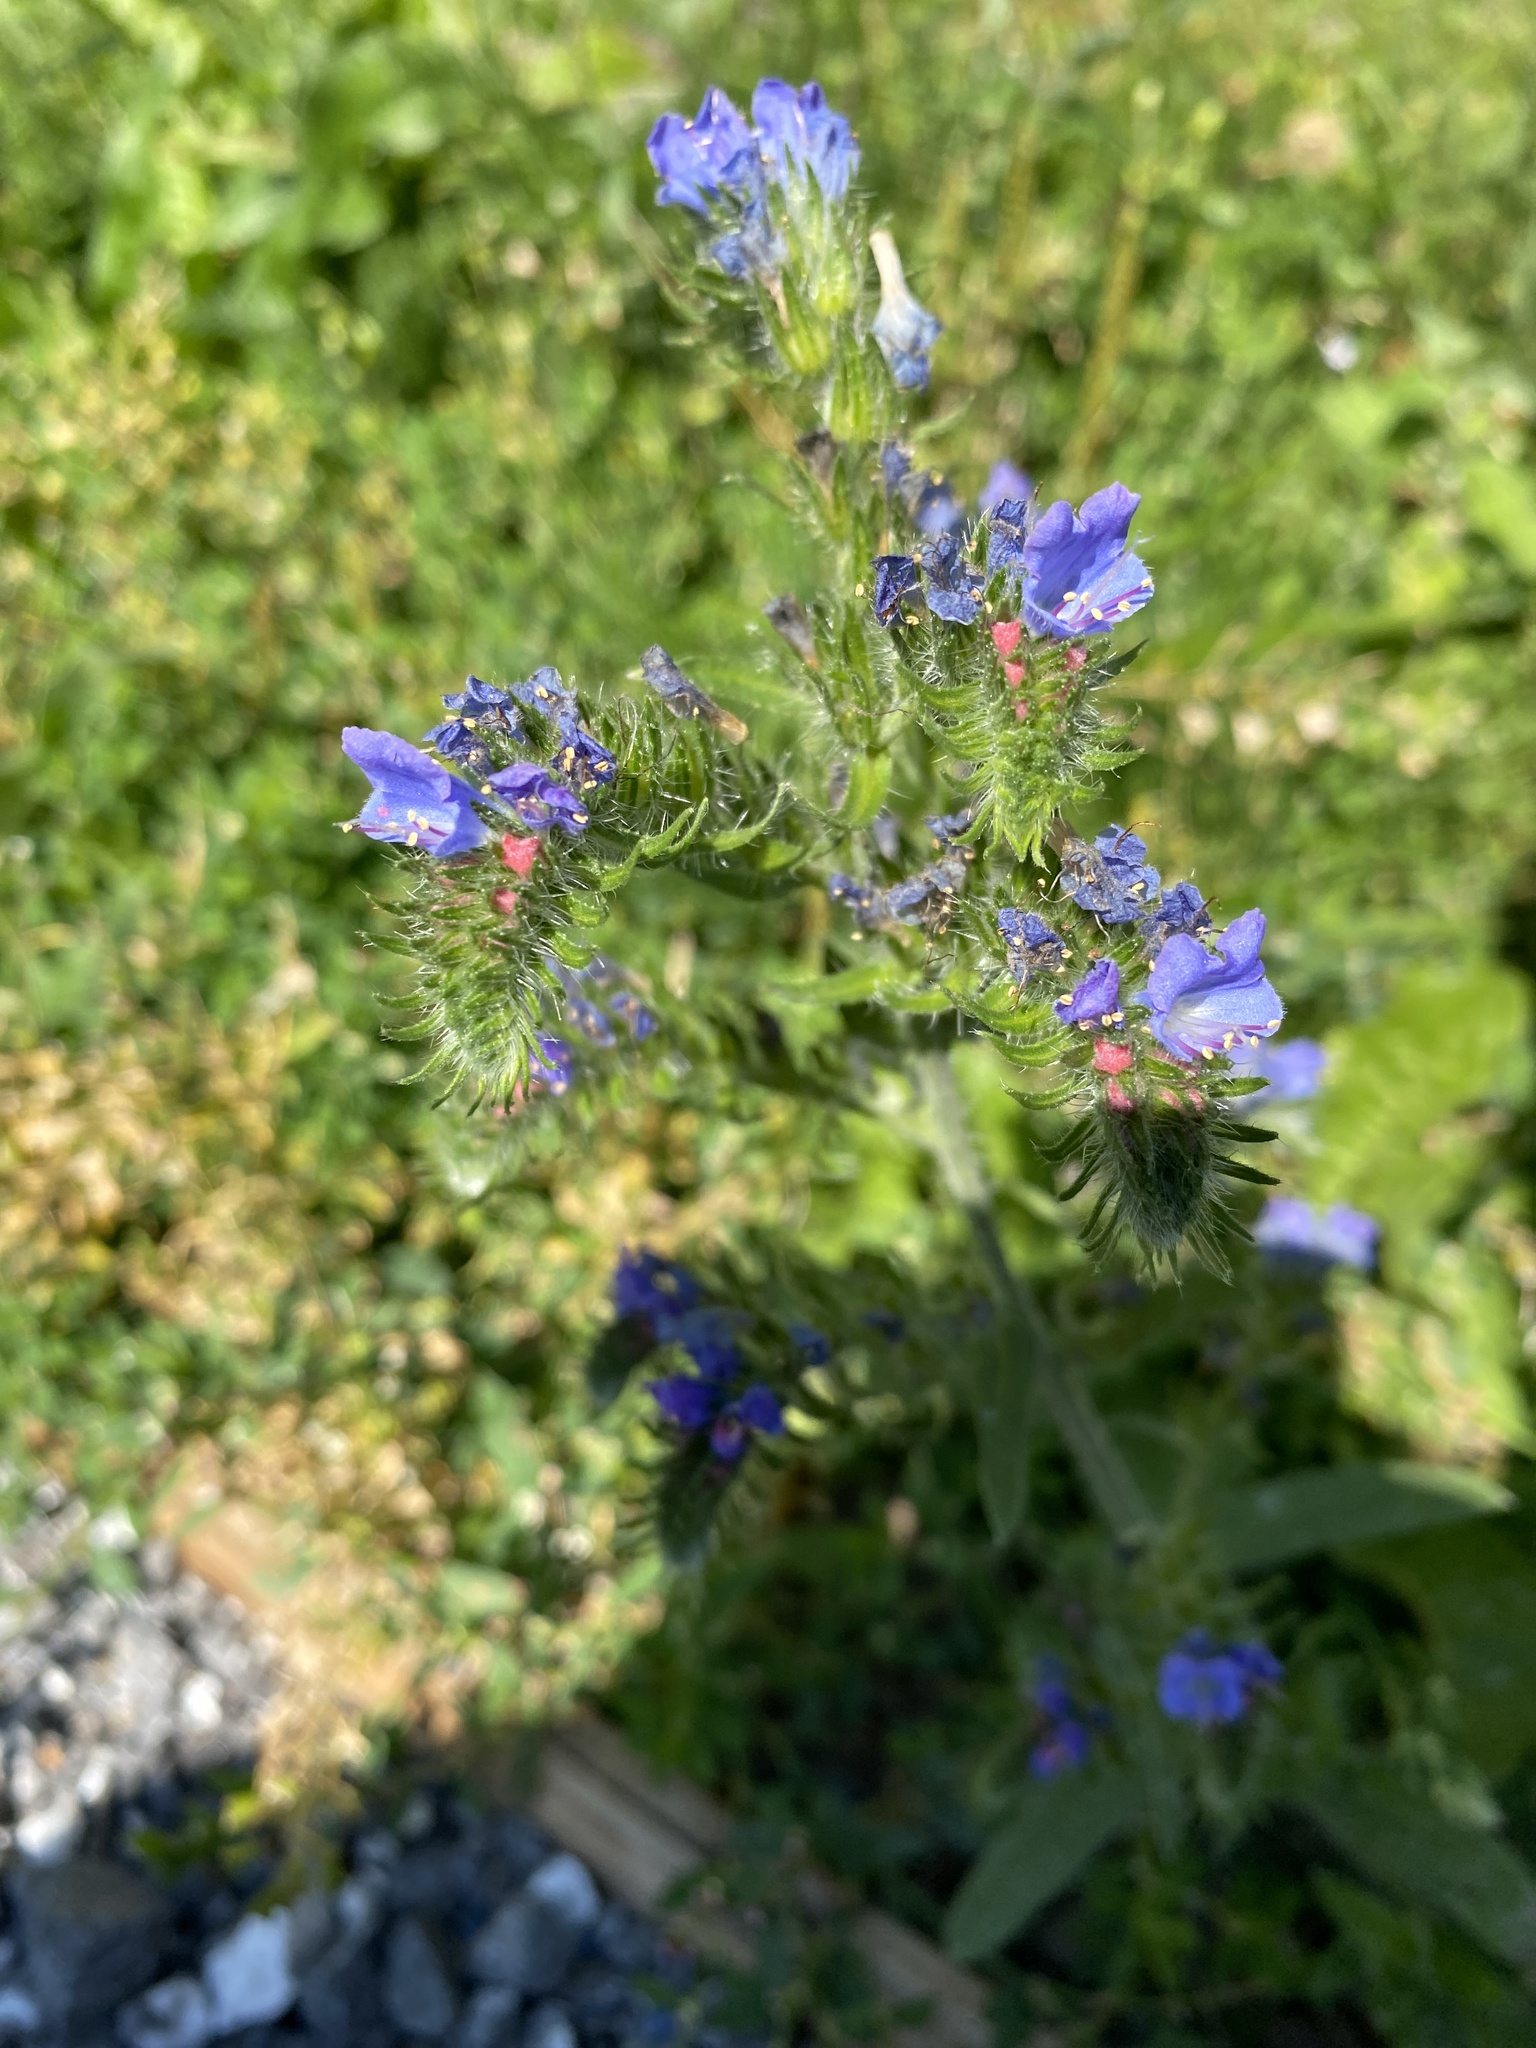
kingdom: Plantae
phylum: Tracheophyta
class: Magnoliopsida
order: Boraginales
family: Boraginaceae
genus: Echium
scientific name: Echium vulgare
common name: Common viper's bugloss
